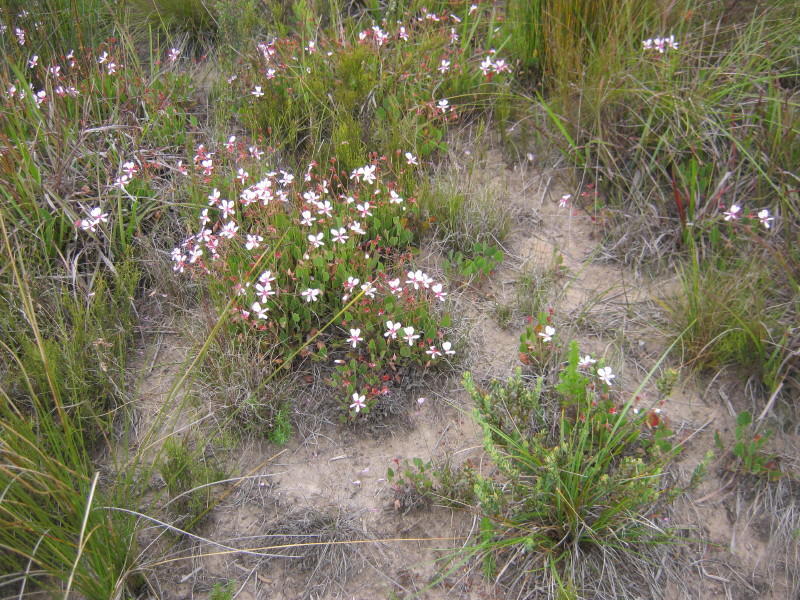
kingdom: Plantae
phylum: Tracheophyta
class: Magnoliopsida
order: Geraniales
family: Geraniaceae
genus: Pelargonium
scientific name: Pelargonium ovale
